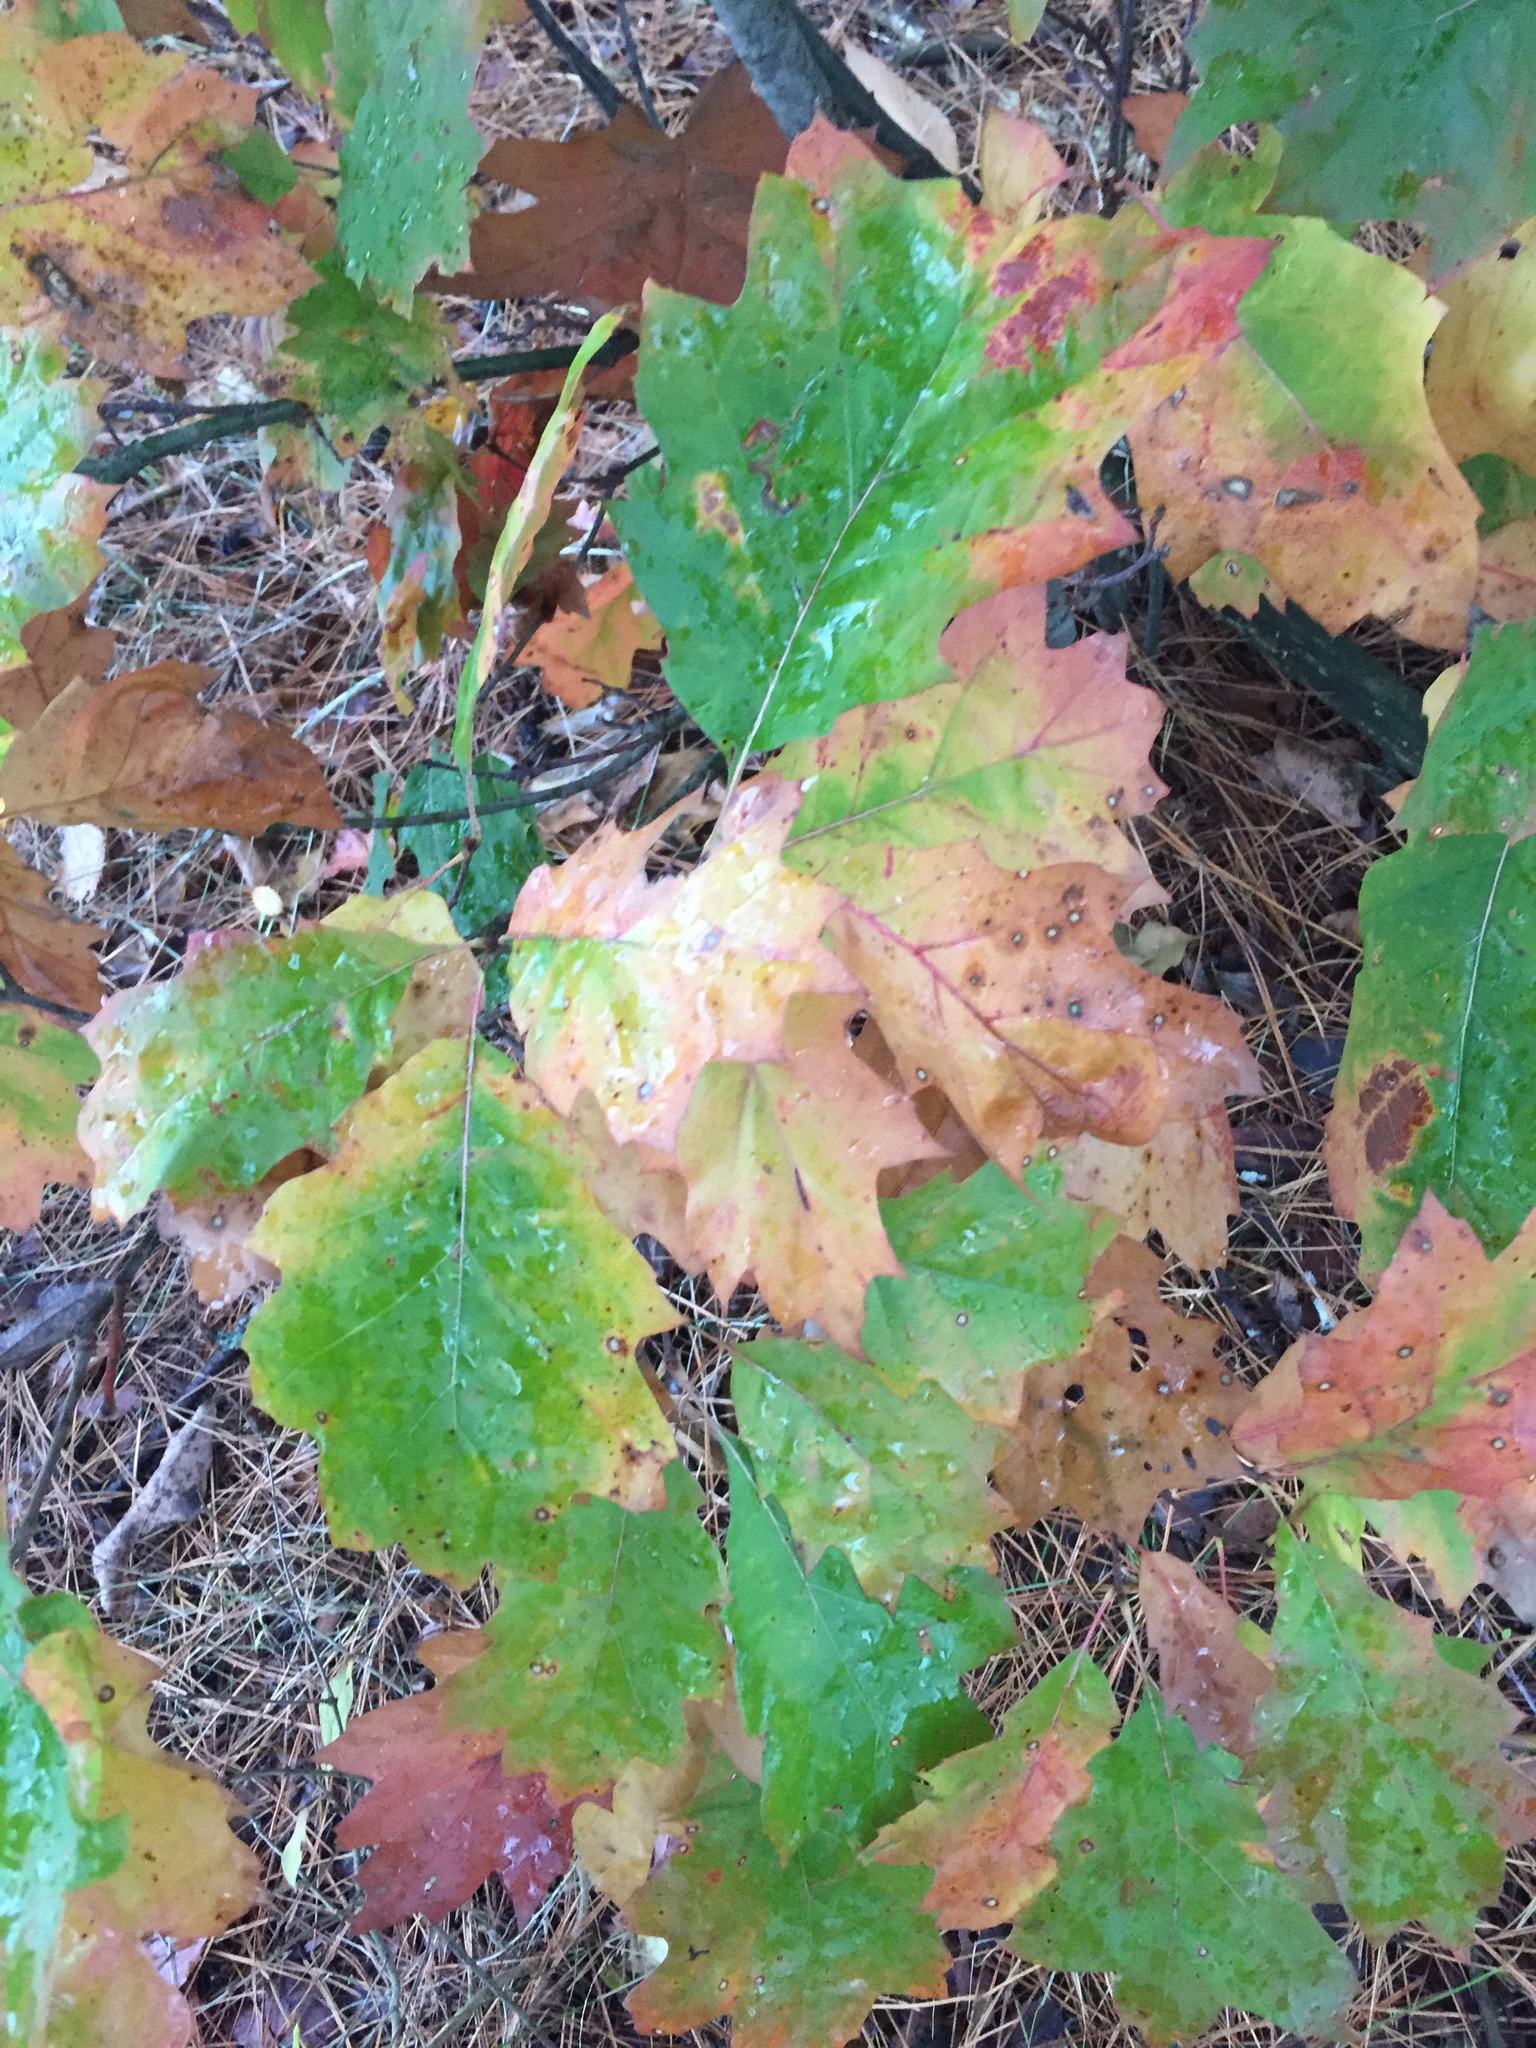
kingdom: Plantae
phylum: Tracheophyta
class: Magnoliopsida
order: Fagales
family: Fagaceae
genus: Quercus
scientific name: Quercus rubra
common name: Red oak
